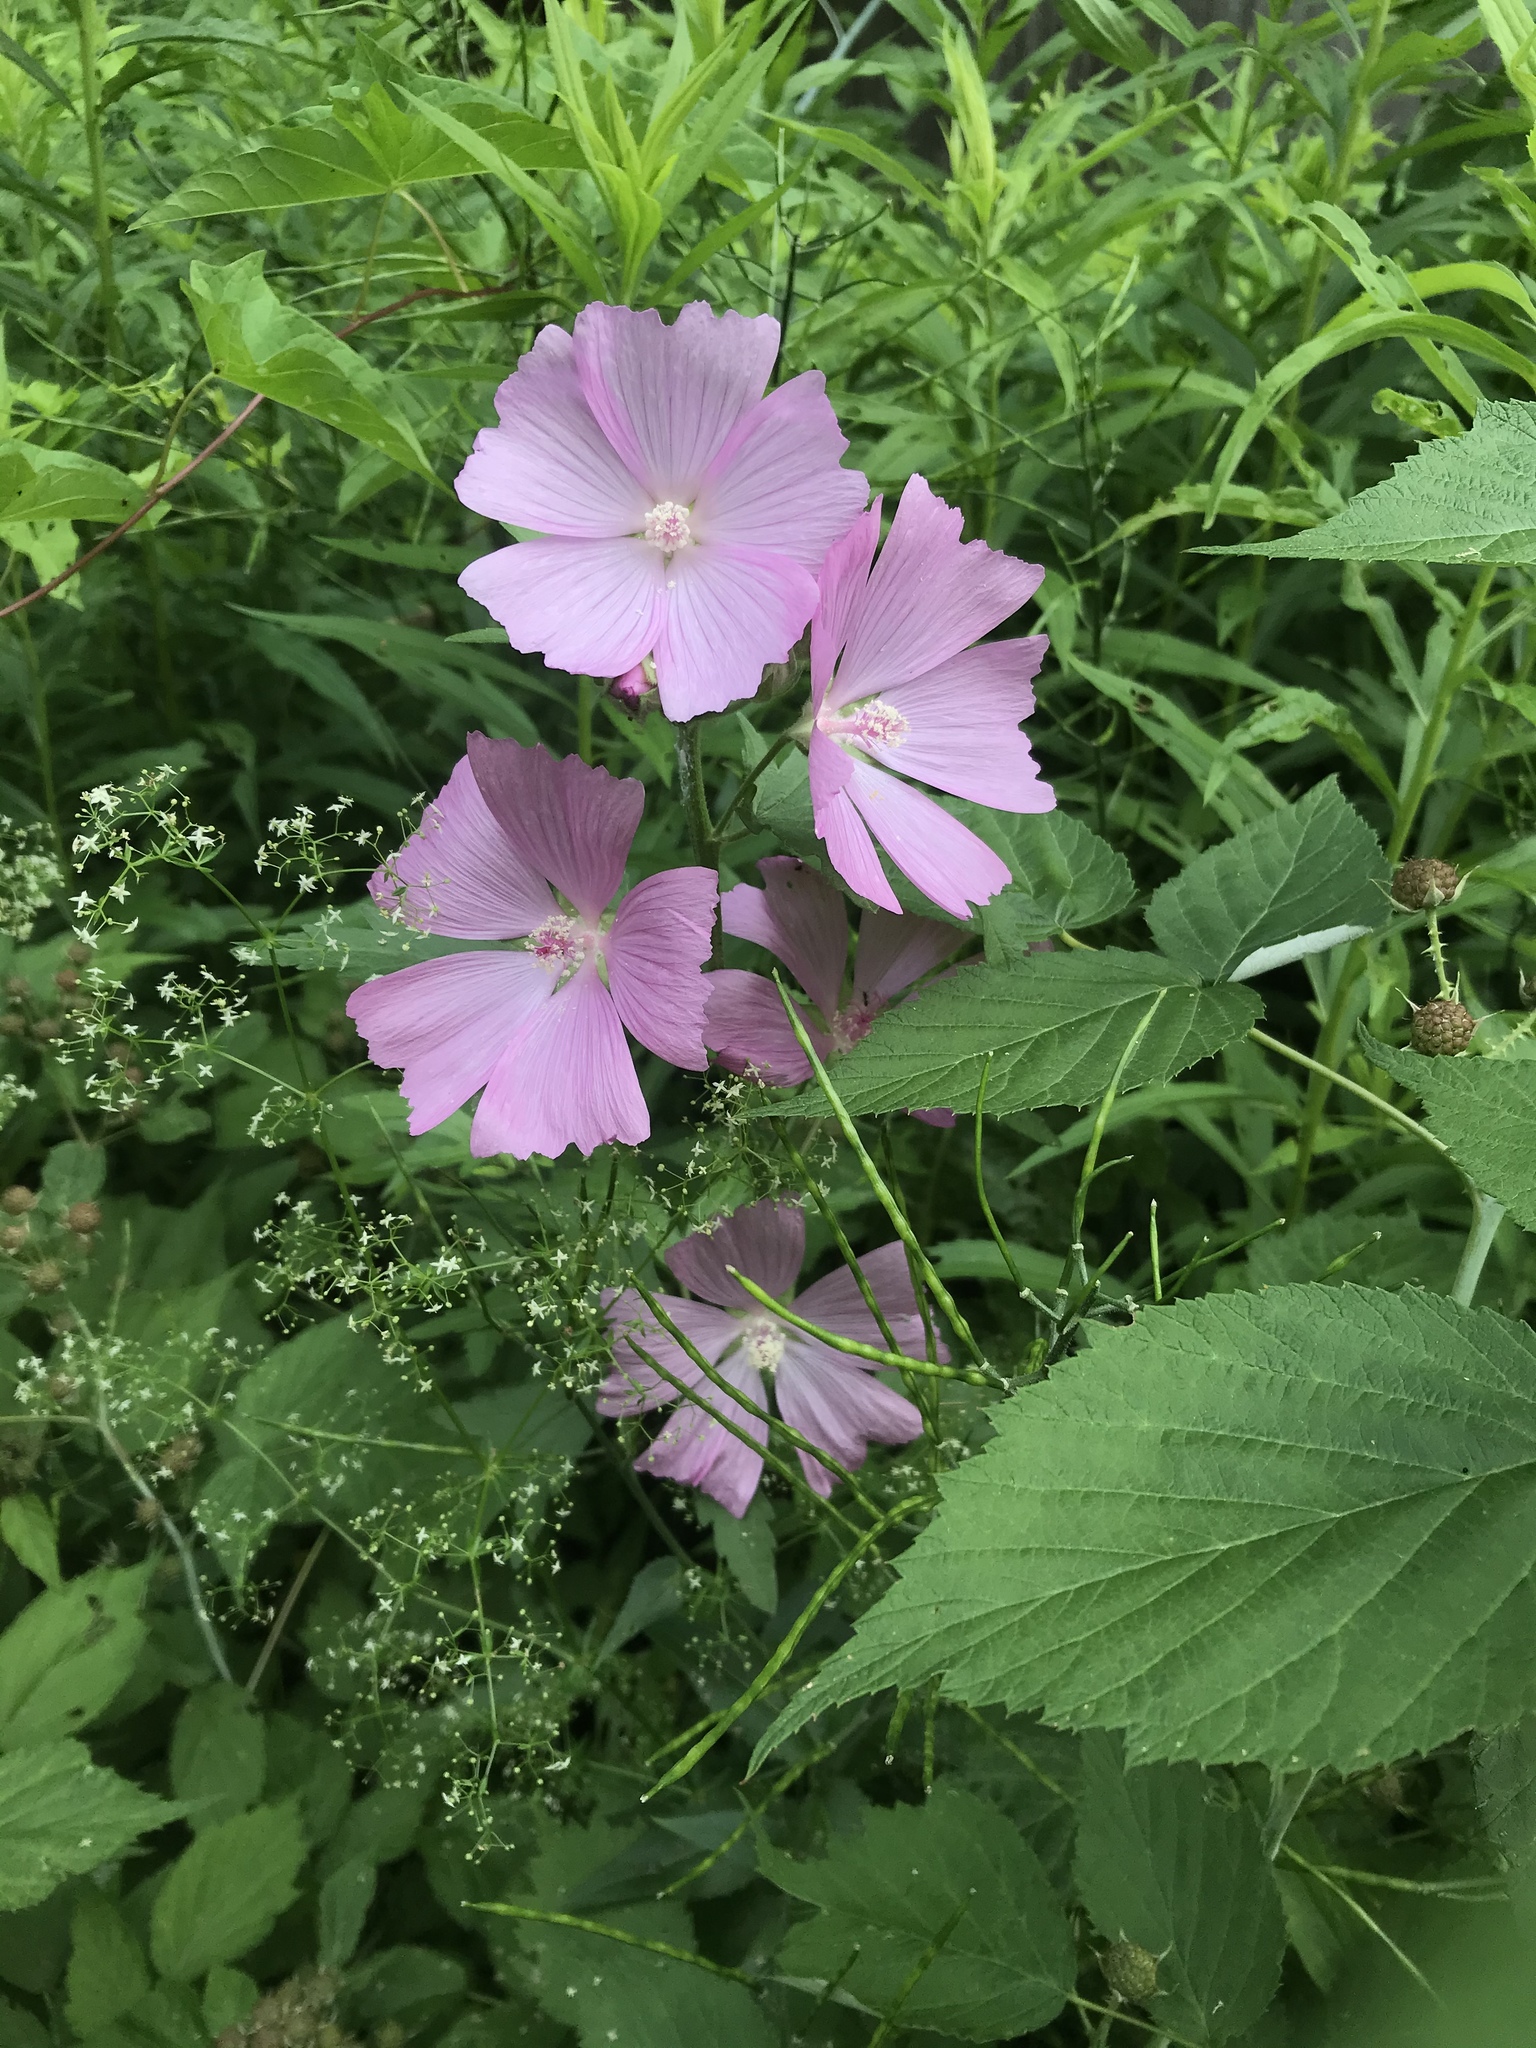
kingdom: Plantae
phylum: Tracheophyta
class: Magnoliopsida
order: Malvales
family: Malvaceae
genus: Malva
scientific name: Malva moschata
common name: Musk mallow
